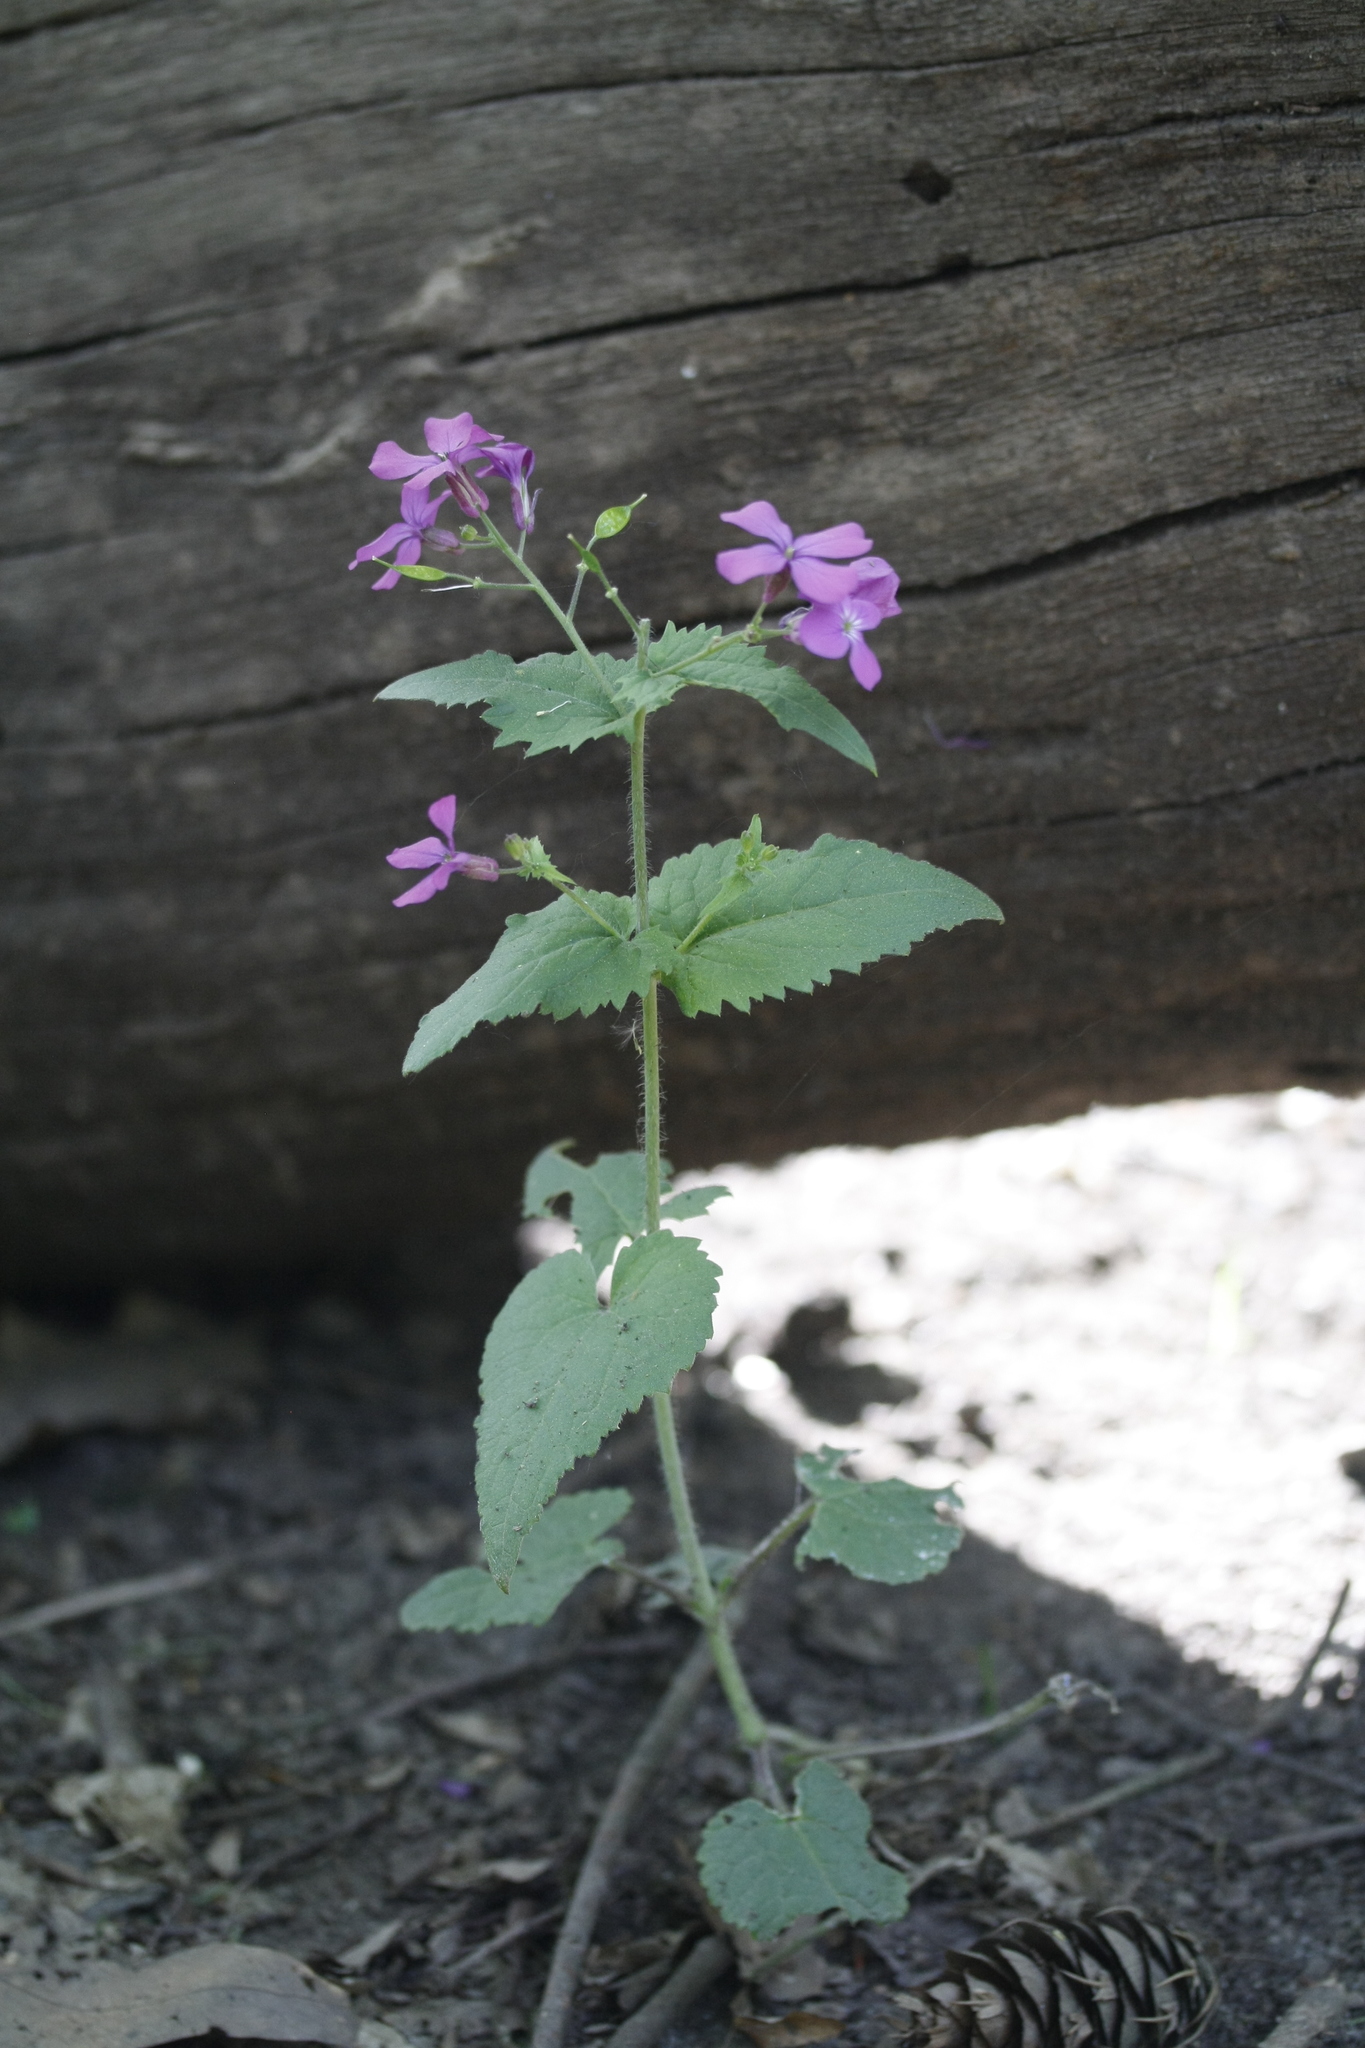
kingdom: Plantae
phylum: Tracheophyta
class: Magnoliopsida
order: Brassicales
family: Brassicaceae
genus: Lunaria
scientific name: Lunaria annua
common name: Honesty
